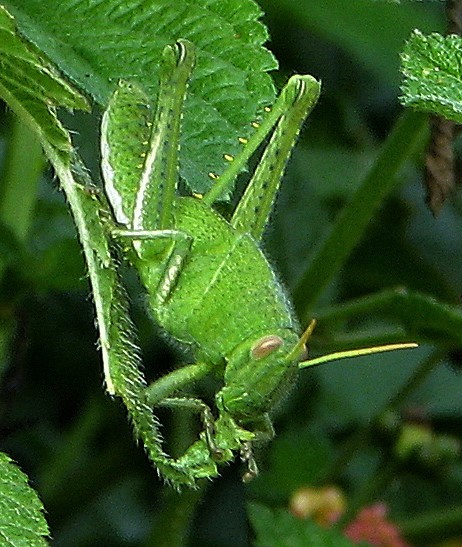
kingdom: Animalia
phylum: Arthropoda
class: Insecta
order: Orthoptera
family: Acrididae
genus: Schistocerca
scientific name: Schistocerca flavofasciata
